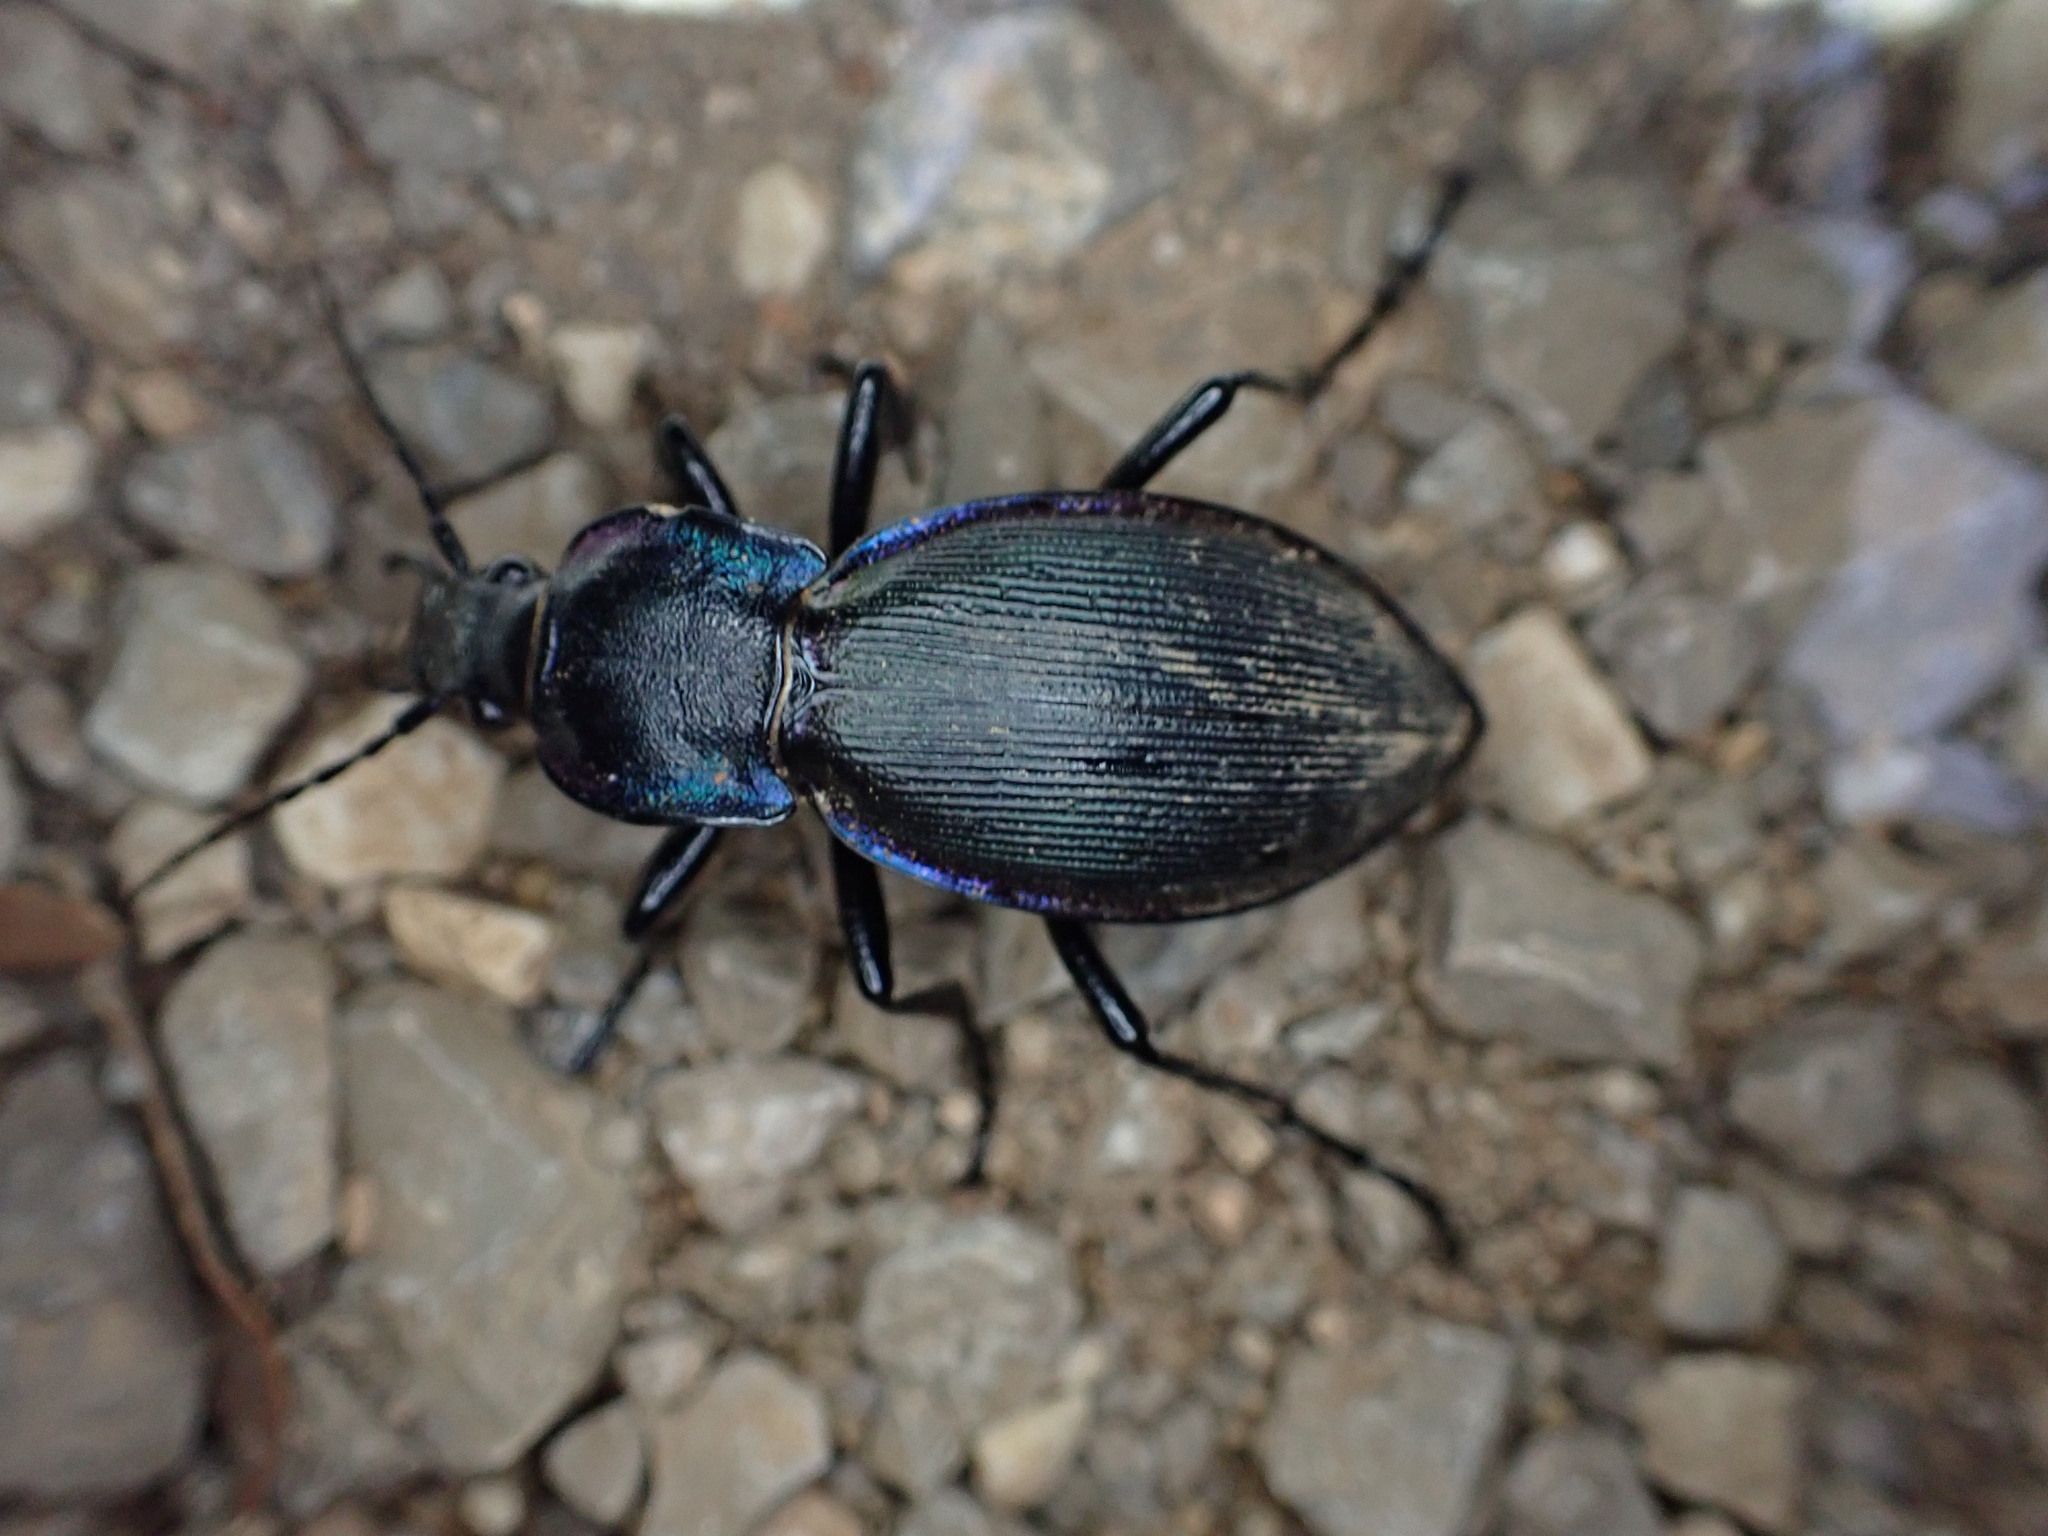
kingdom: Animalia
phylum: Arthropoda
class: Insecta
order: Coleoptera
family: Carabidae
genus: Carabus
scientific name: Carabus purpurascens
